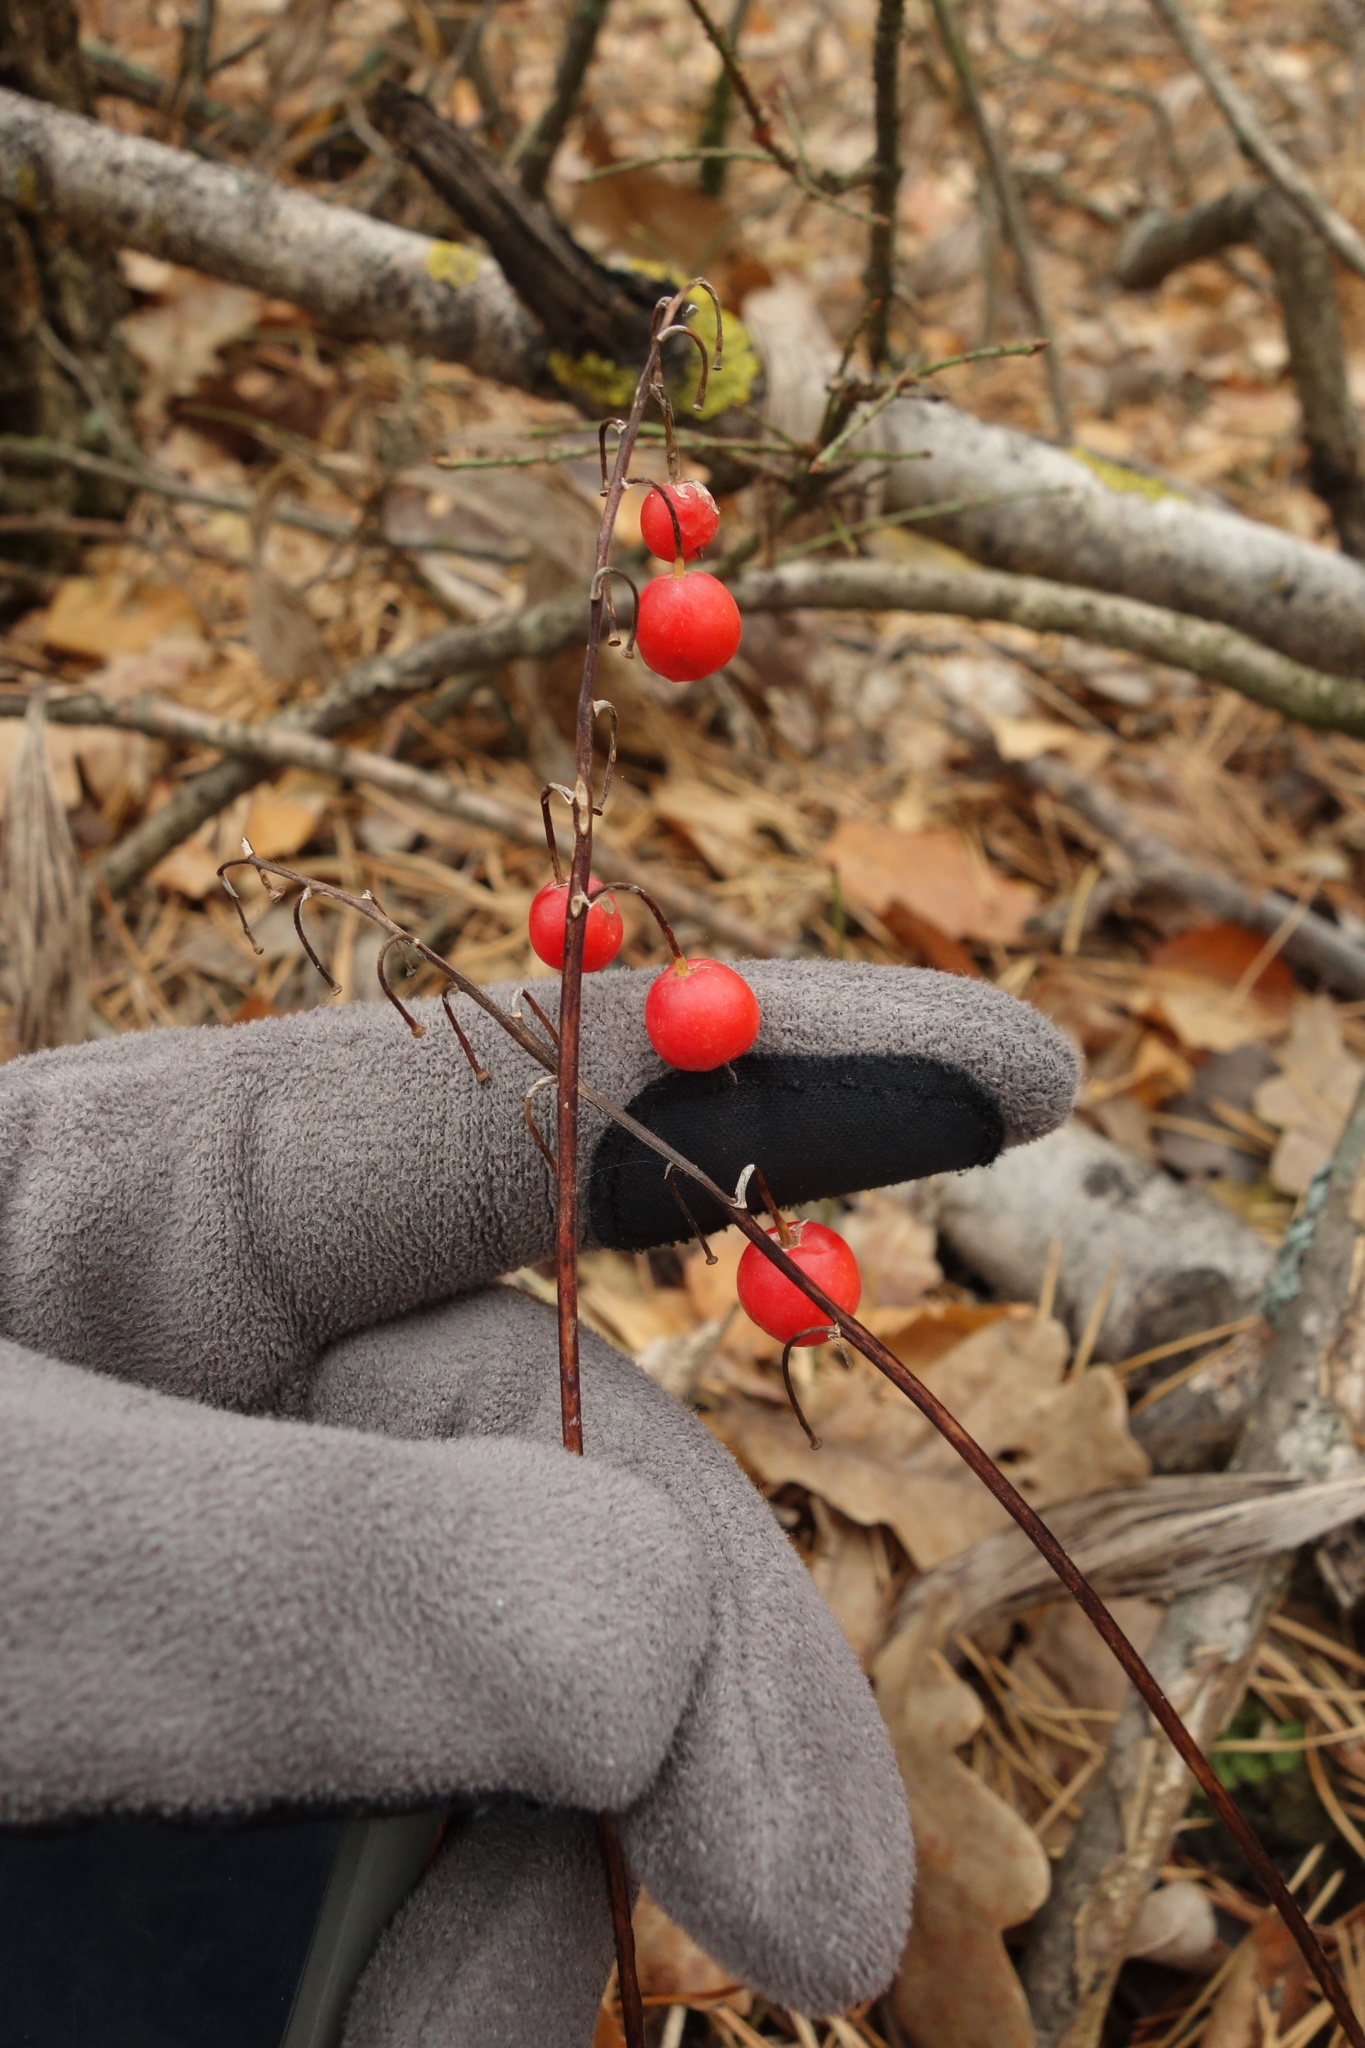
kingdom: Plantae
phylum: Tracheophyta
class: Liliopsida
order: Asparagales
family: Asparagaceae
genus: Convallaria
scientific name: Convallaria majalis
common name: Lily-of-the-valley
